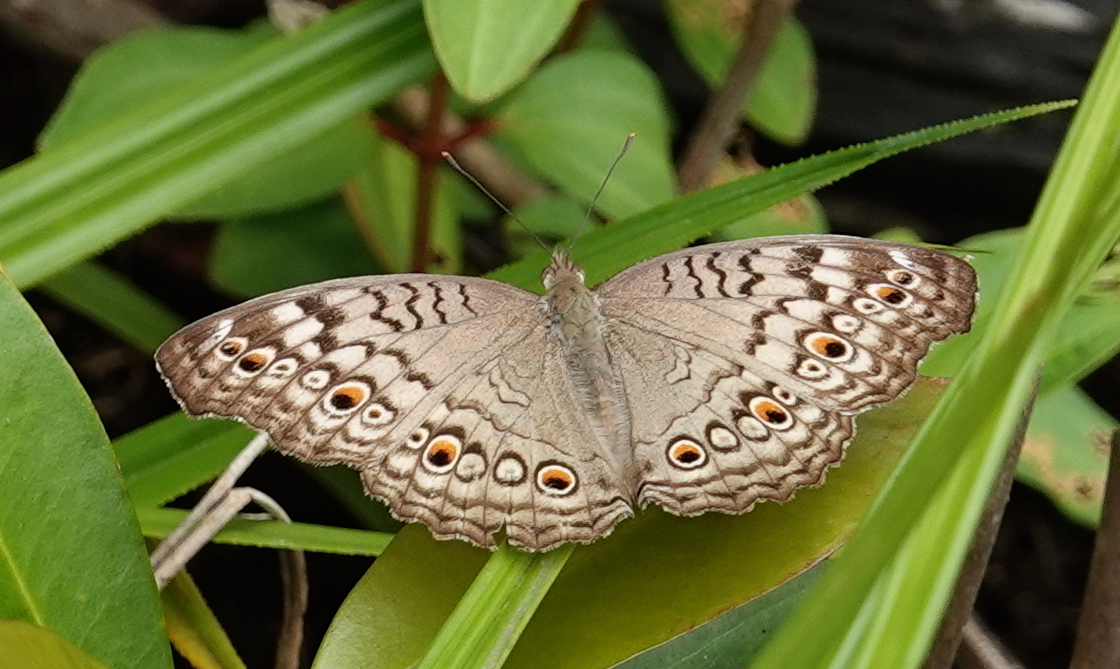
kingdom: Animalia
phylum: Arthropoda
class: Insecta
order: Lepidoptera
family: Nymphalidae
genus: Junonia
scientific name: Junonia atlites
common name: Grey pansy
